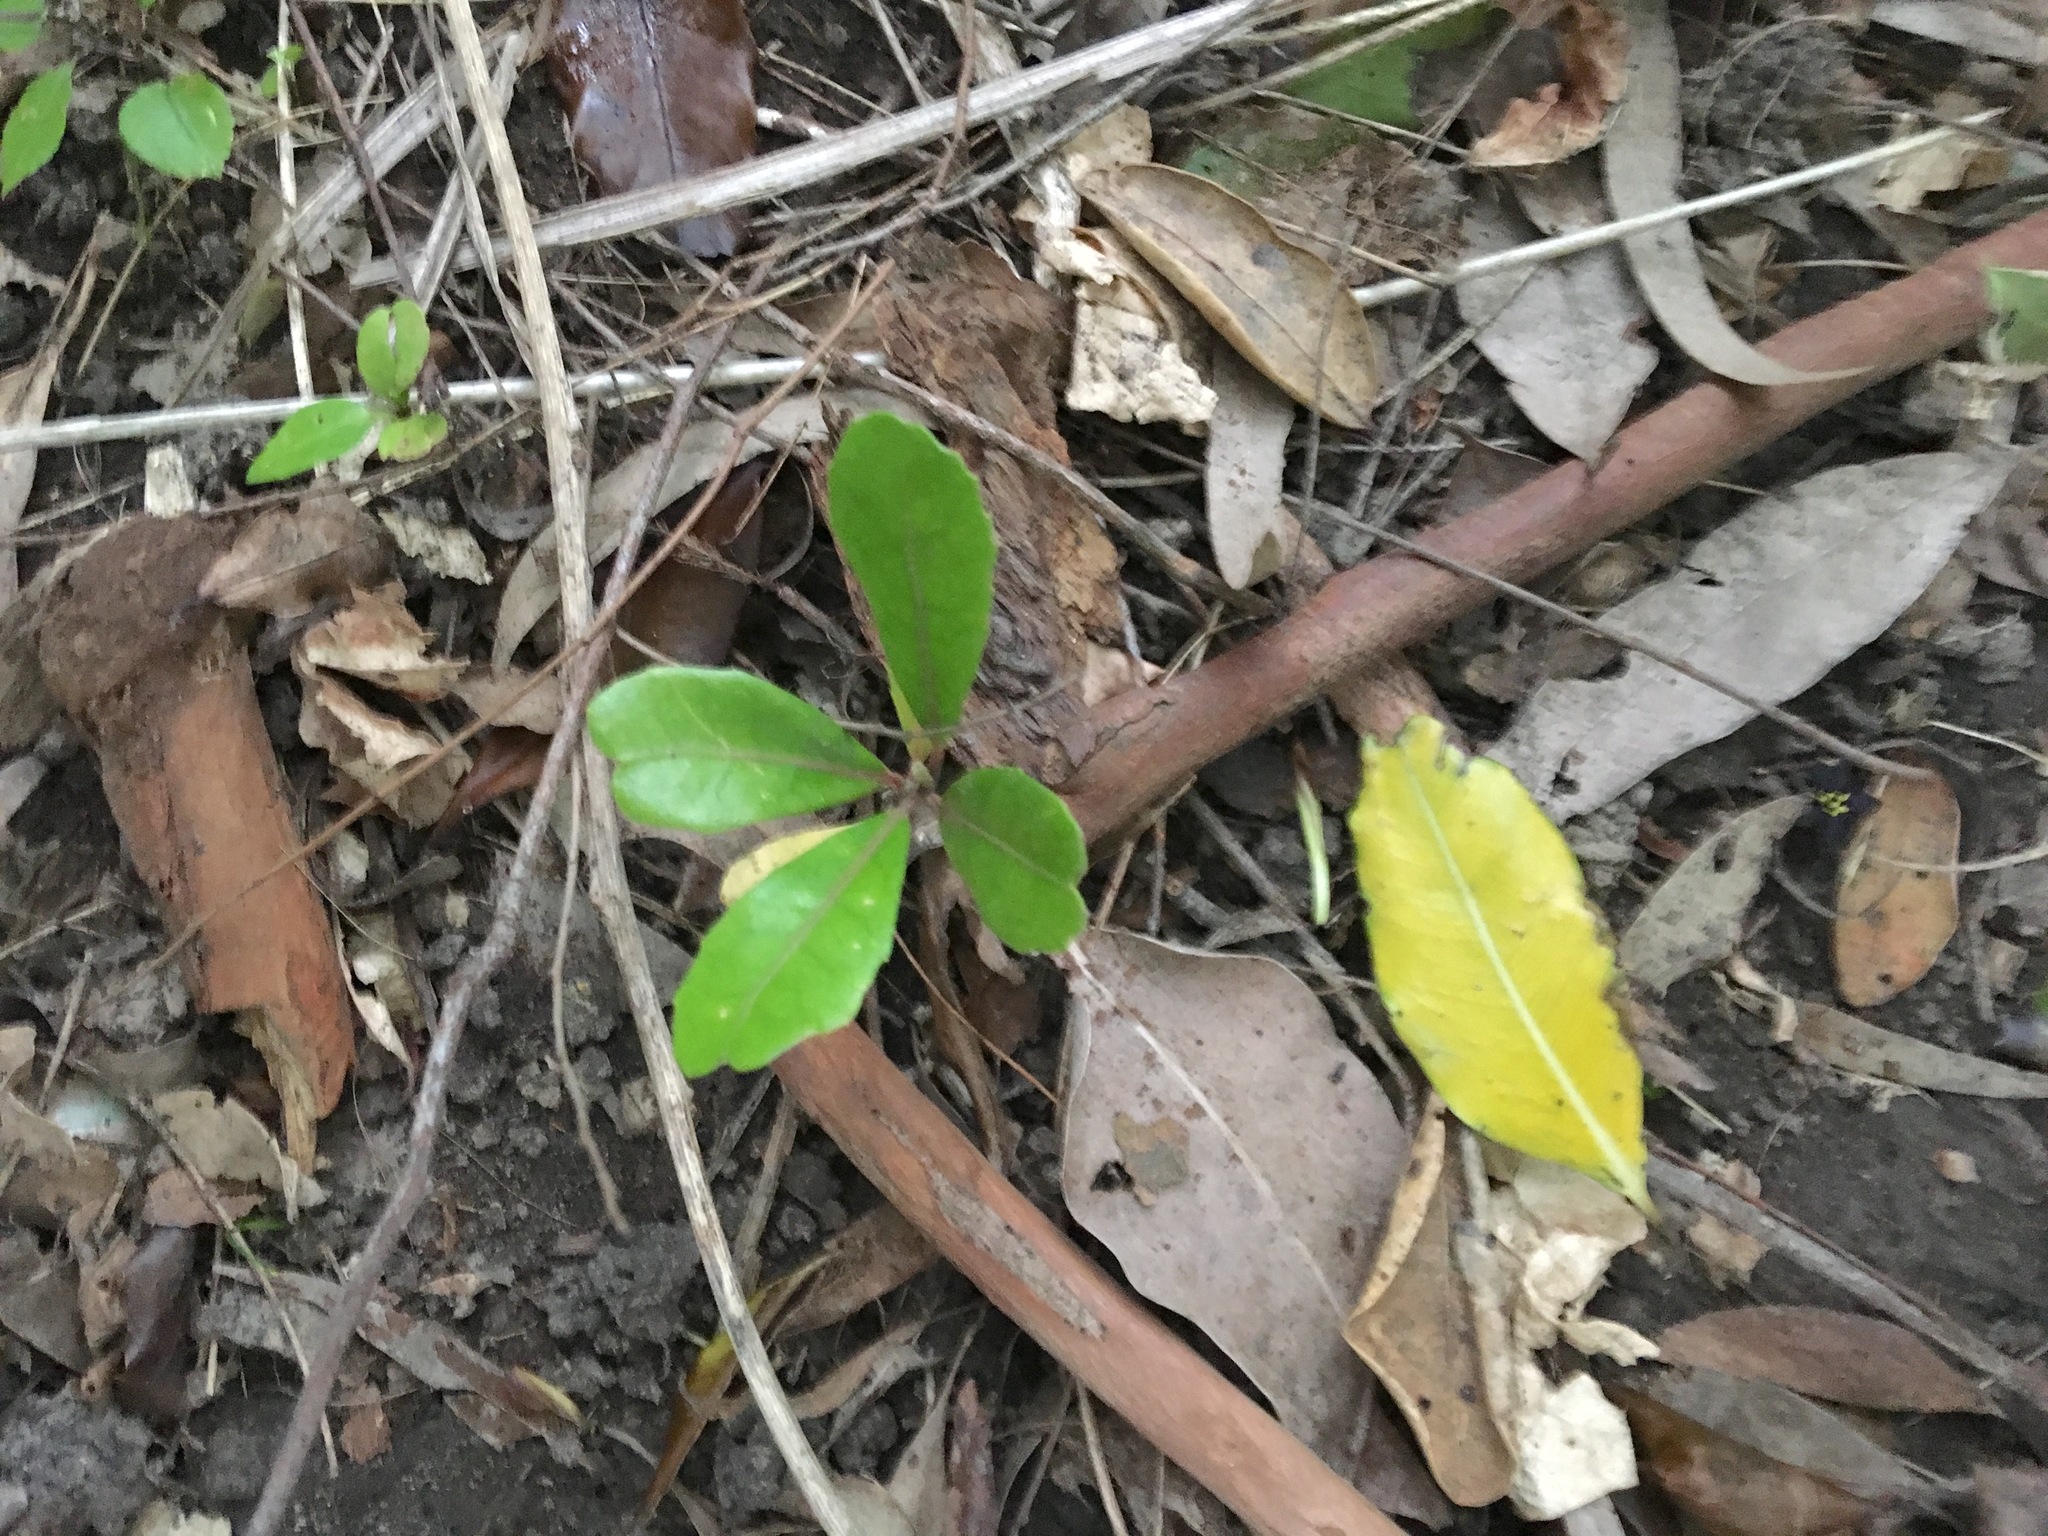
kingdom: Plantae
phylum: Tracheophyta
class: Magnoliopsida
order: Laurales
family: Monimiaceae
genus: Hedycarya
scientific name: Hedycarya arborea
